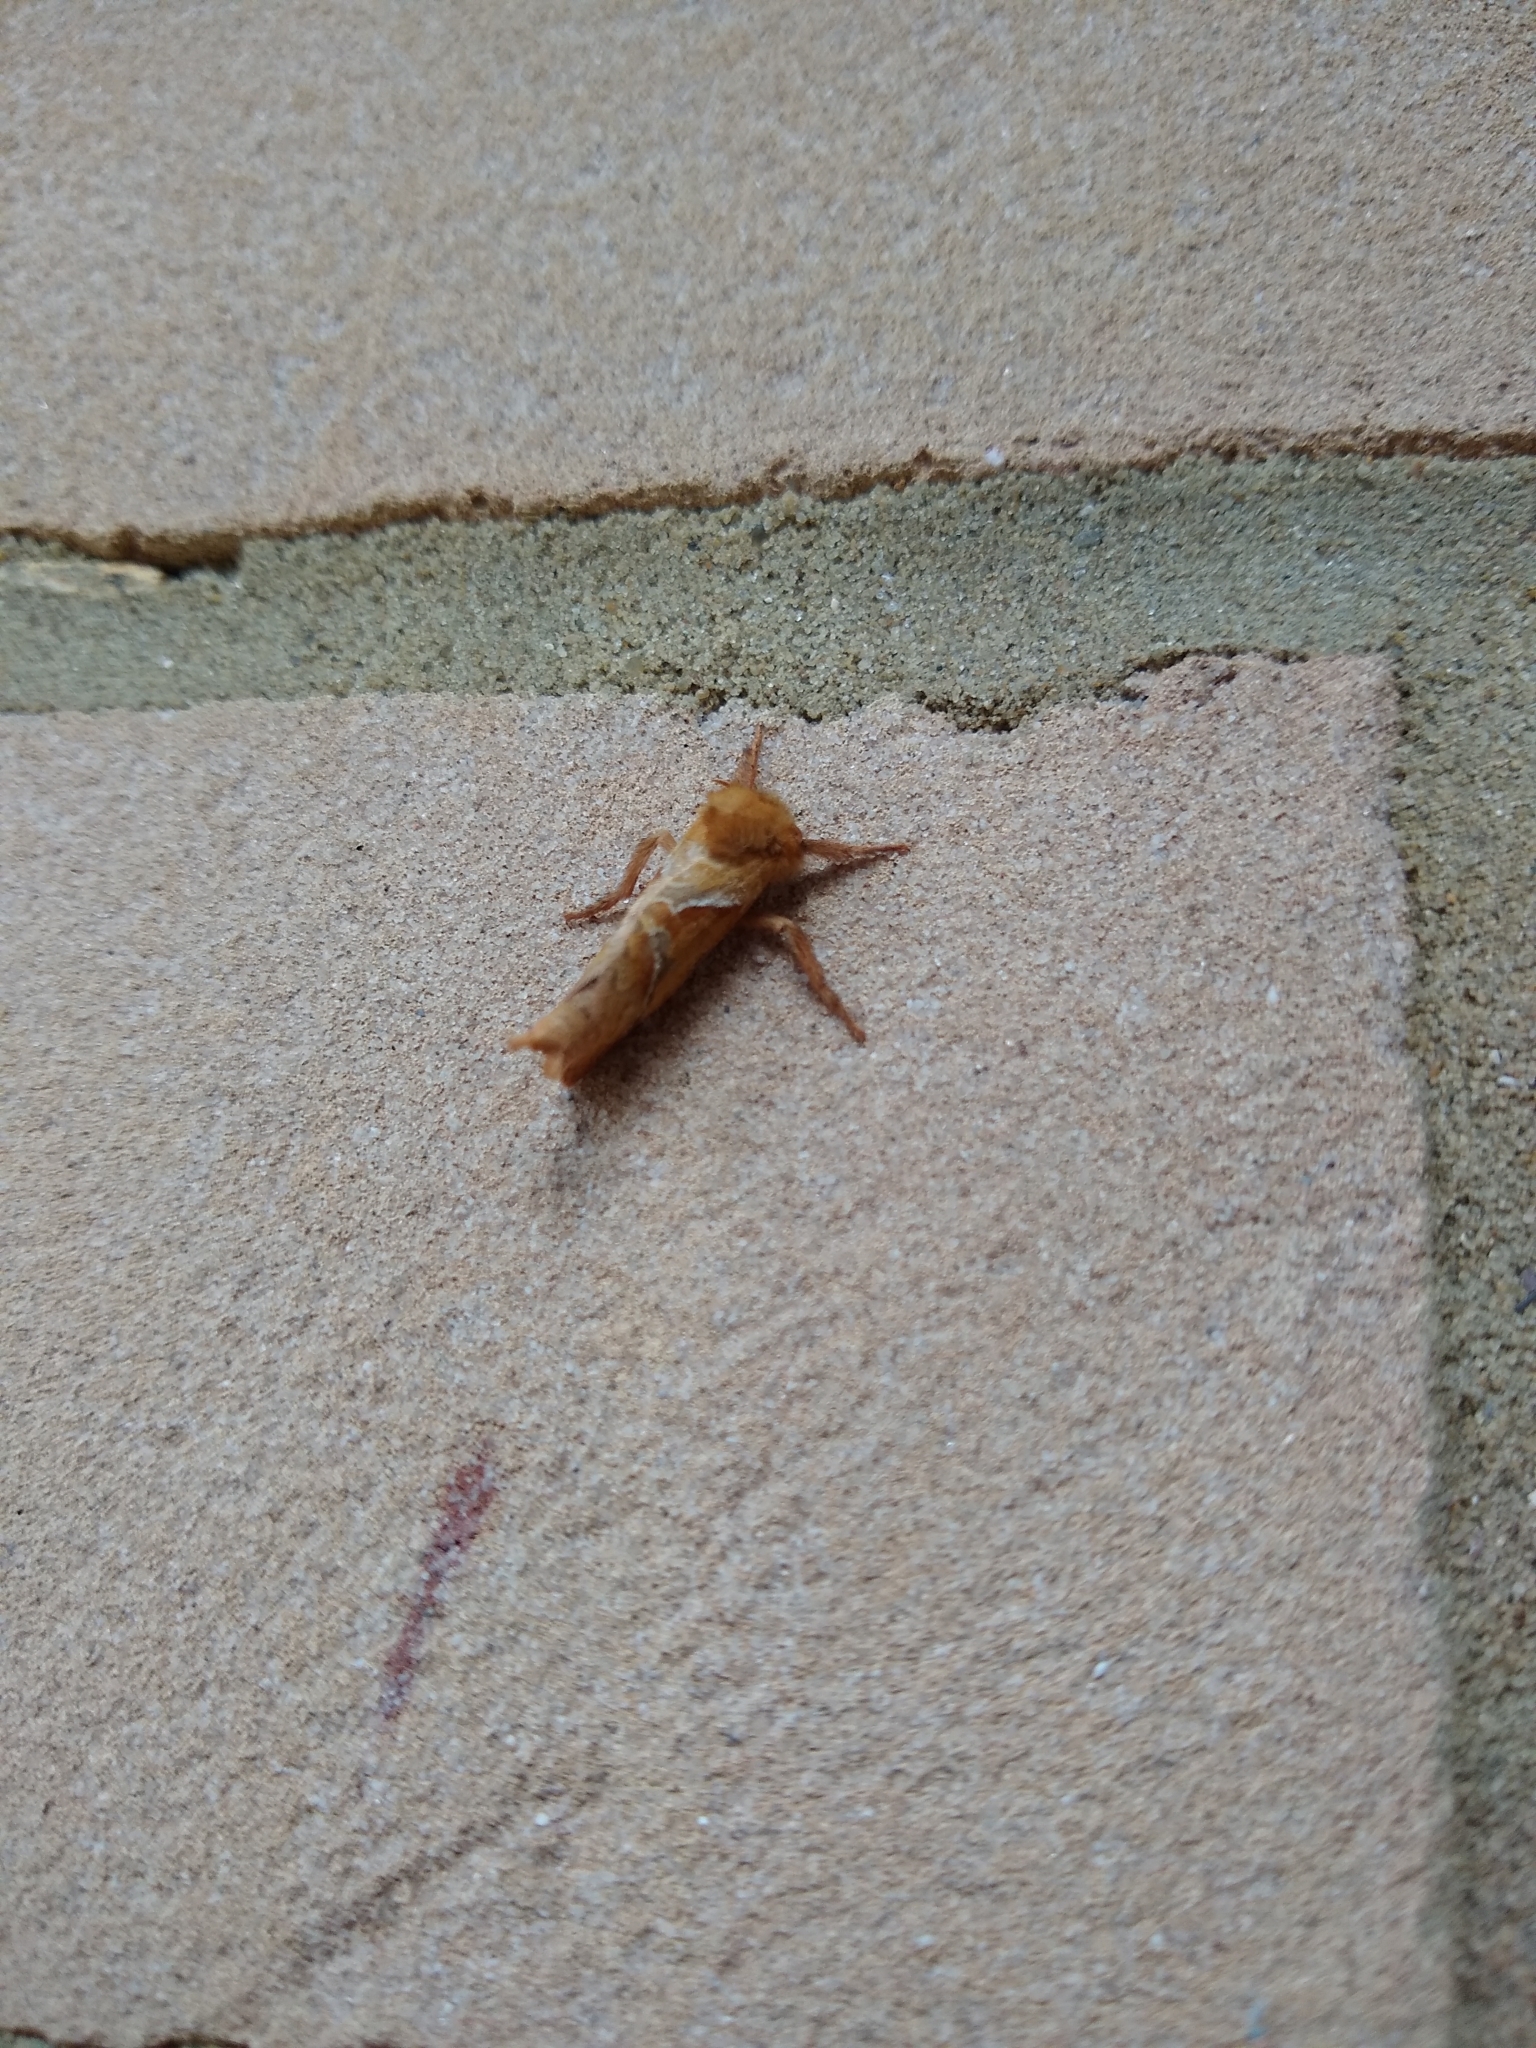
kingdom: Animalia
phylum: Arthropoda
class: Insecta
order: Lepidoptera
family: Hepialidae
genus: Triodia
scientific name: Triodia sylvina
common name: Orange swift
